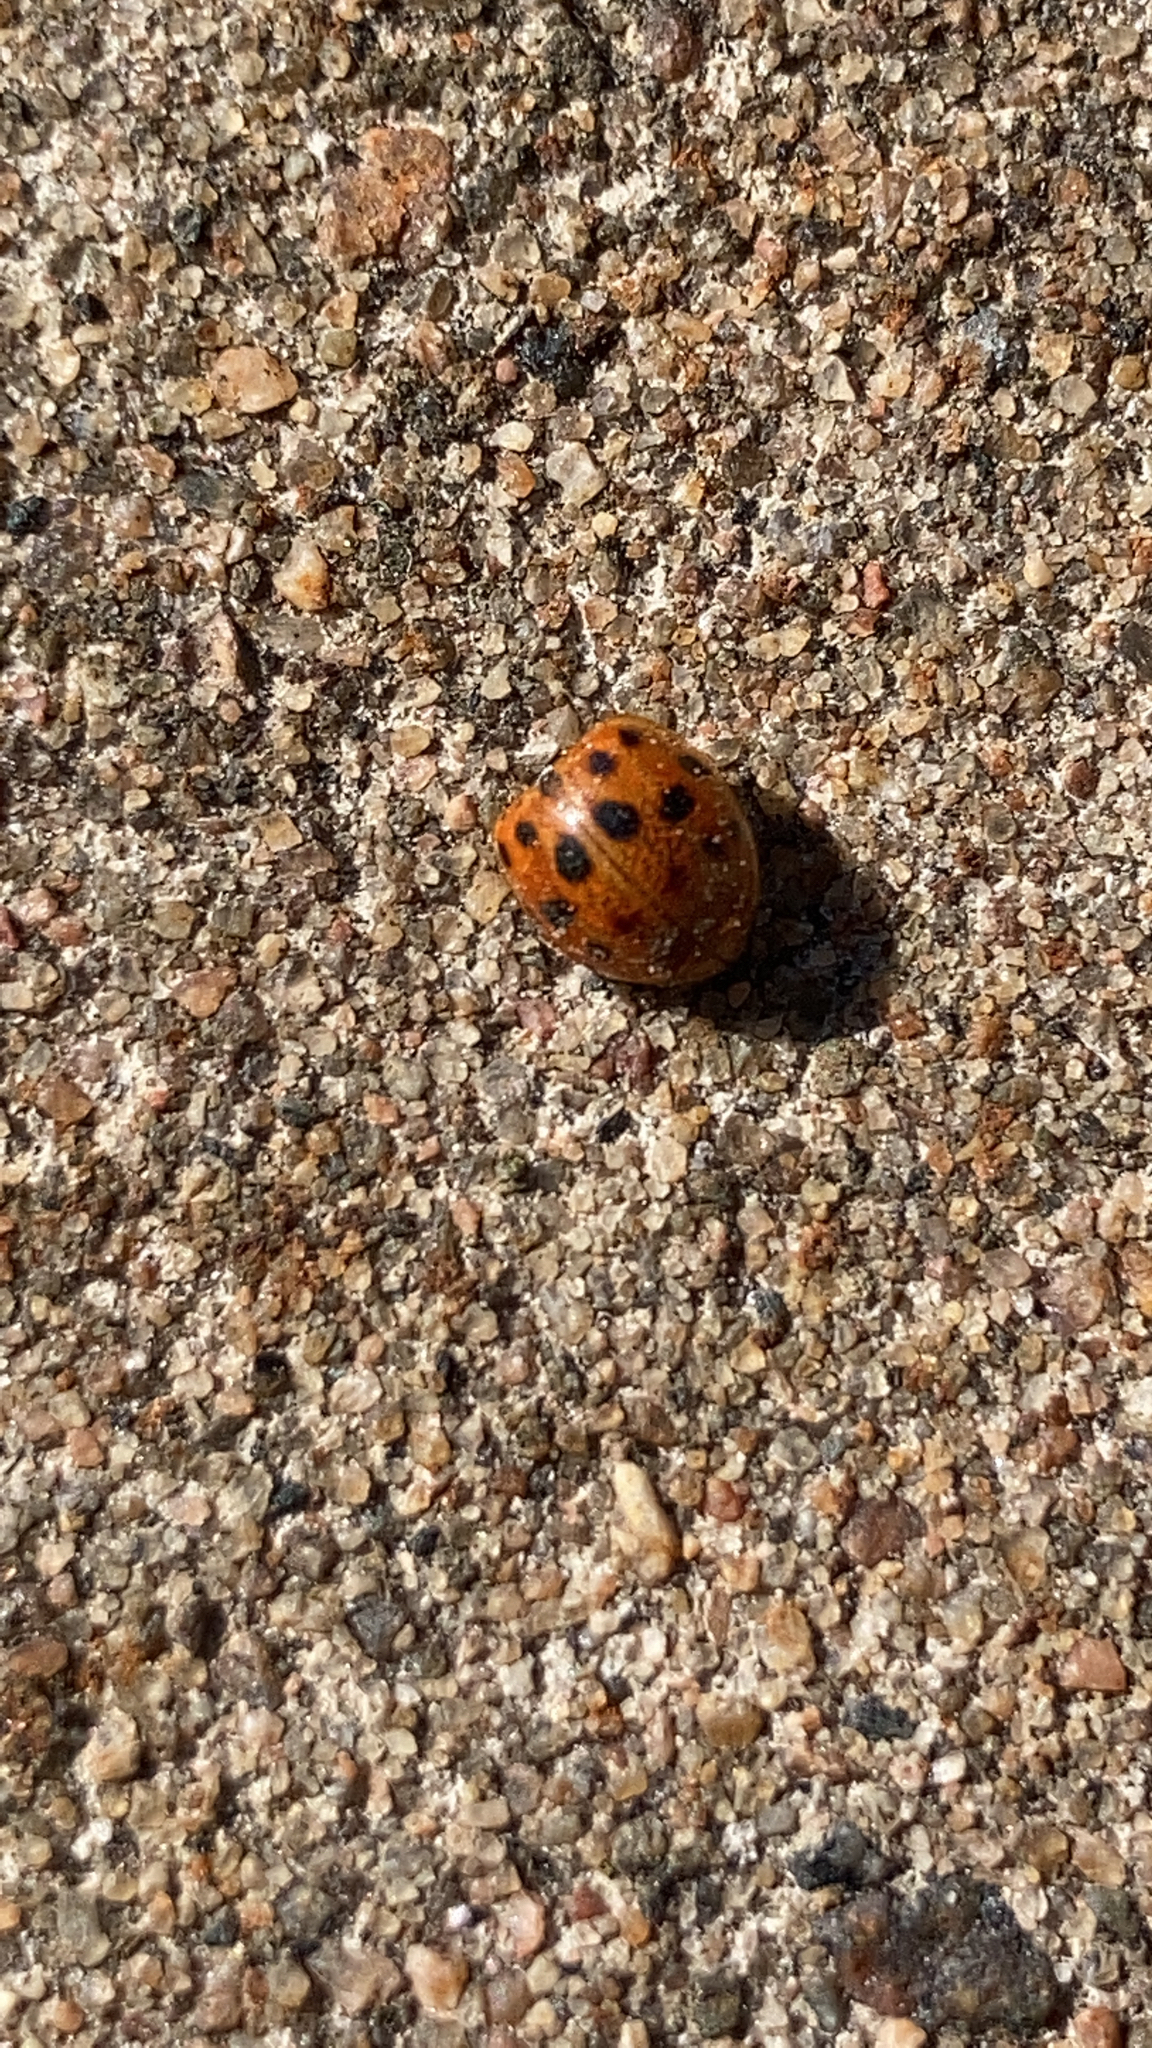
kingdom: Animalia
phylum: Arthropoda
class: Insecta
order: Coleoptera
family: Coccinellidae
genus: Harmonia
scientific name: Harmonia axyridis
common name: Harlequin ladybird
